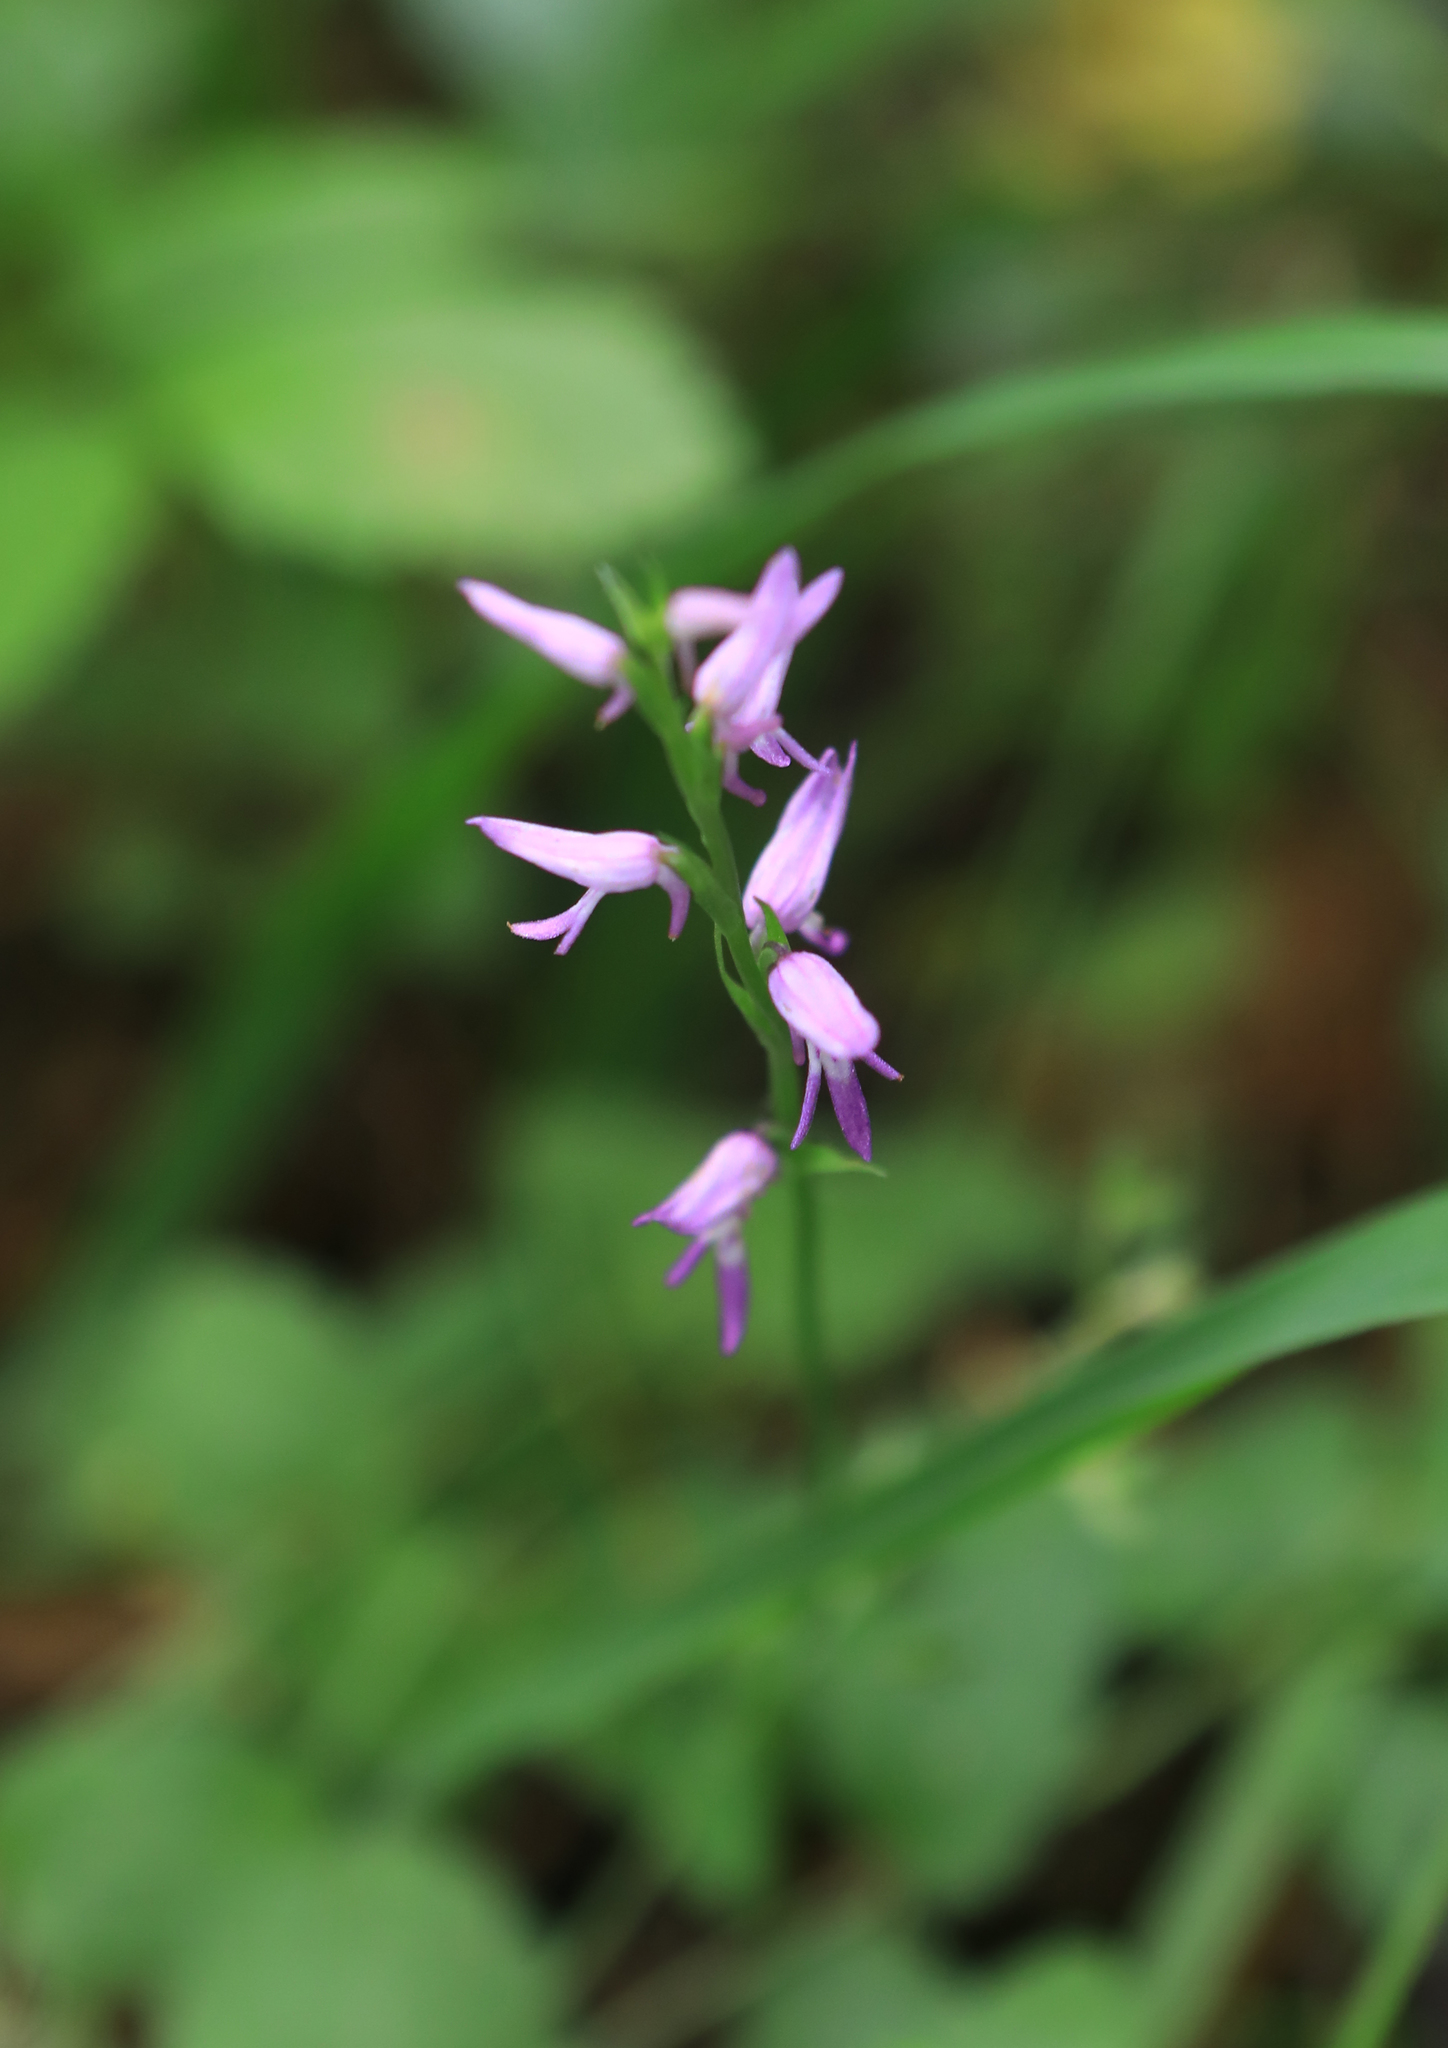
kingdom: Plantae
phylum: Tracheophyta
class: Liliopsida
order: Asparagales
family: Orchidaceae
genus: Hemipilia
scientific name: Hemipilia cucullata
